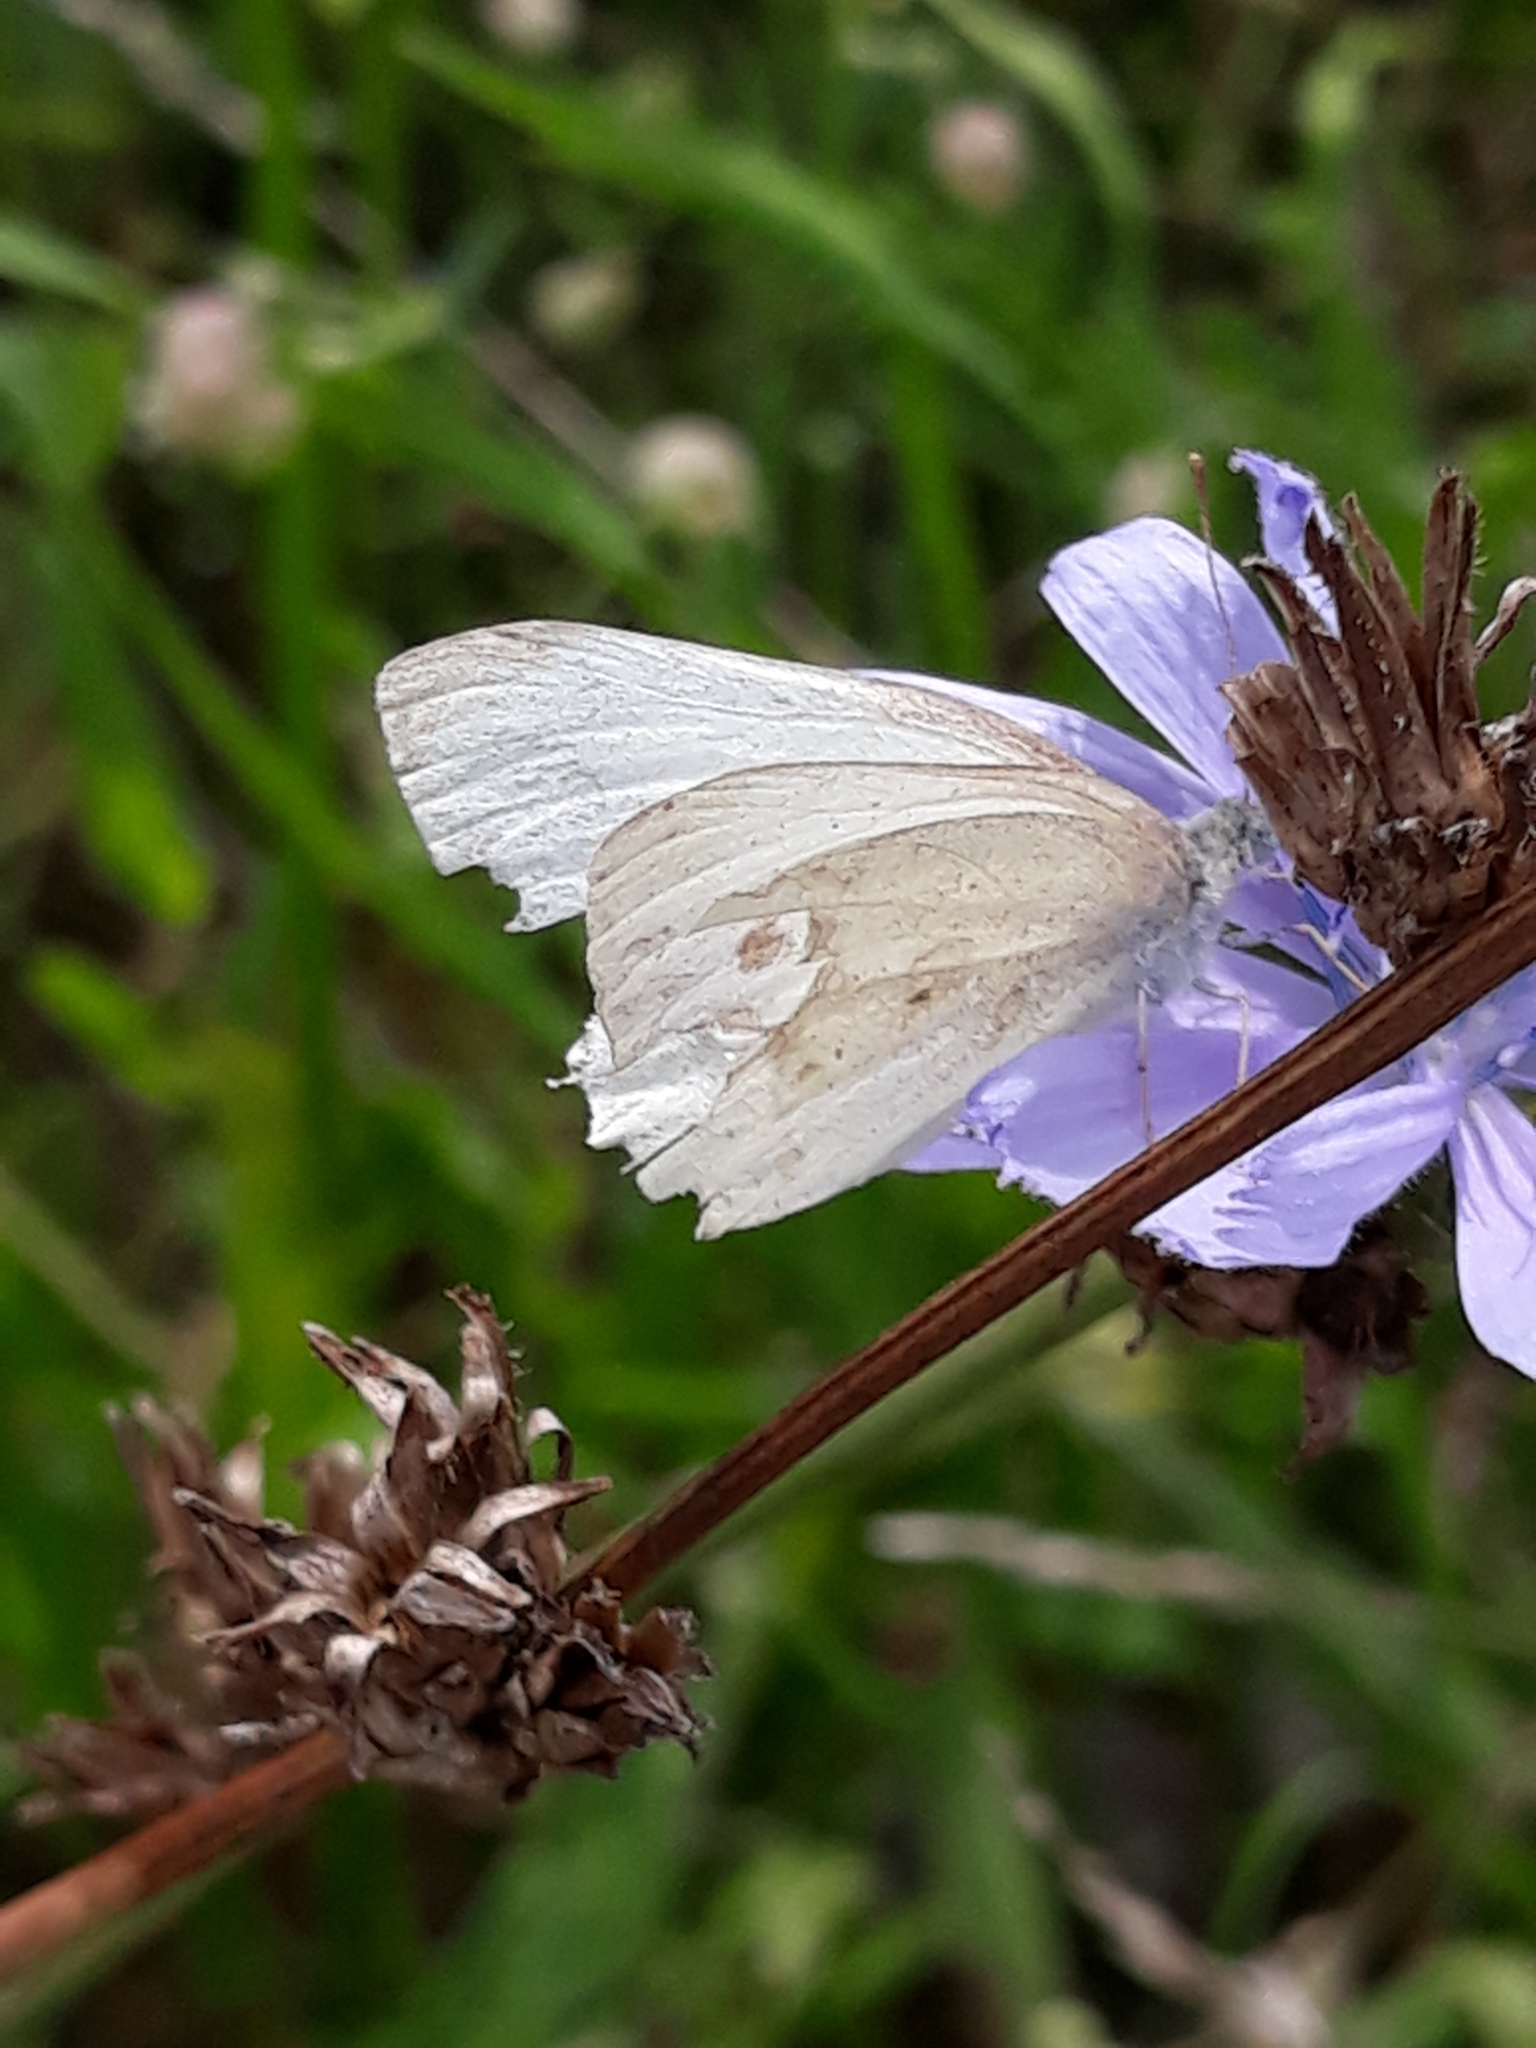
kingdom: Animalia
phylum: Arthropoda
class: Insecta
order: Lepidoptera
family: Pieridae
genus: Pieris
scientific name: Pieris rapae
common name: Small white
